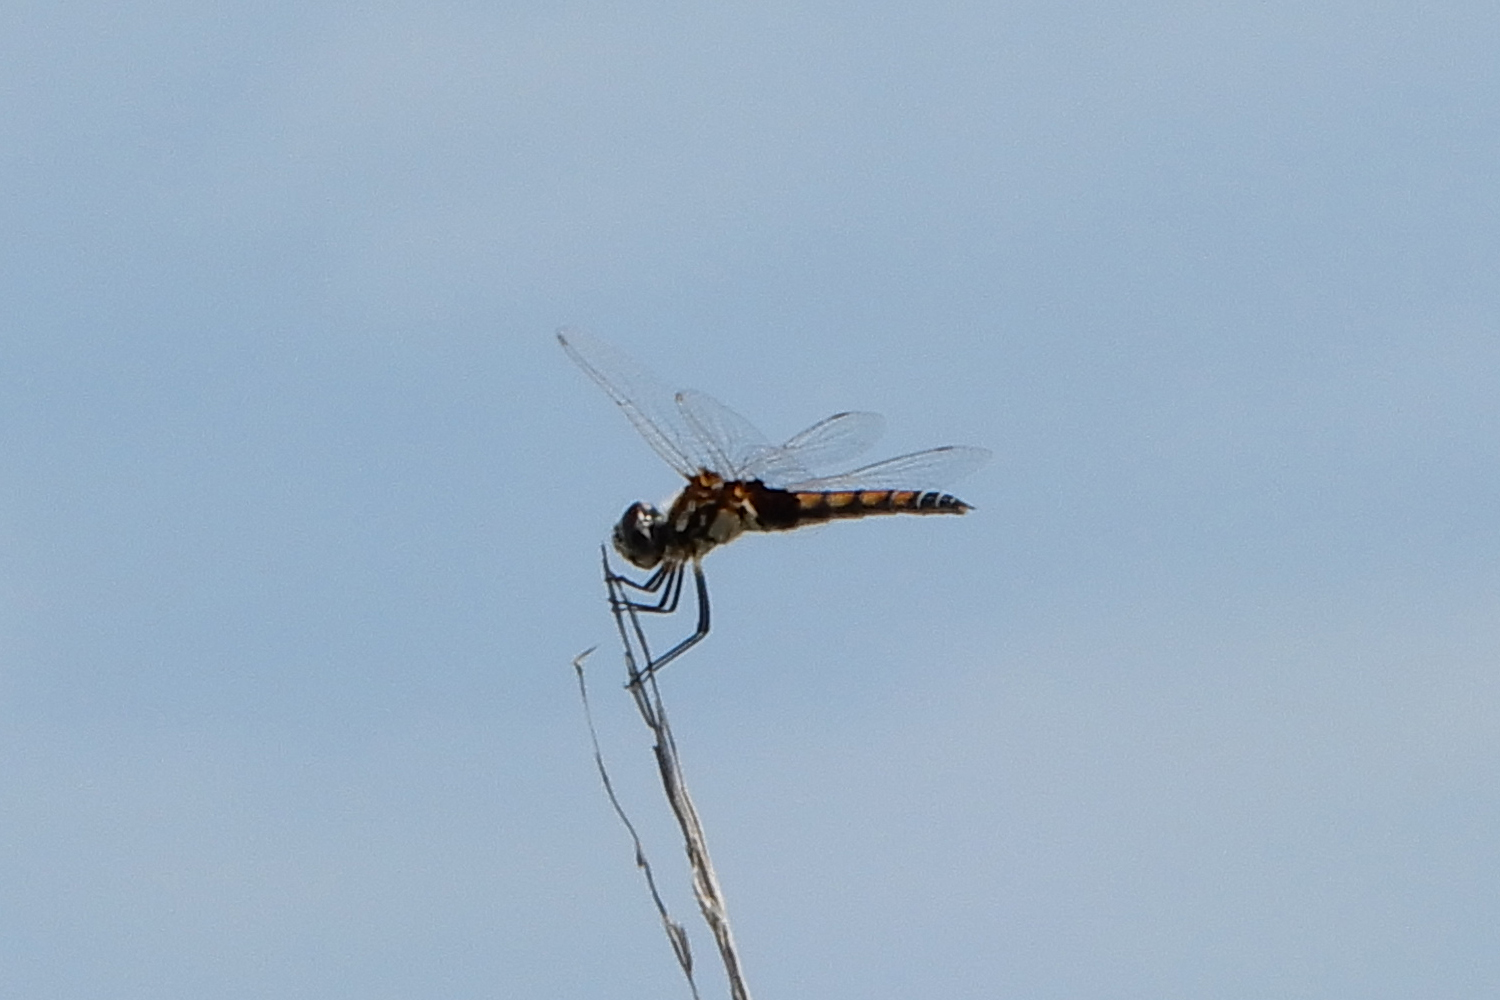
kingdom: Animalia
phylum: Arthropoda
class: Insecta
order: Odonata
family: Libellulidae
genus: Macrodiplax
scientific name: Macrodiplax balteata
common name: Marl pennant
